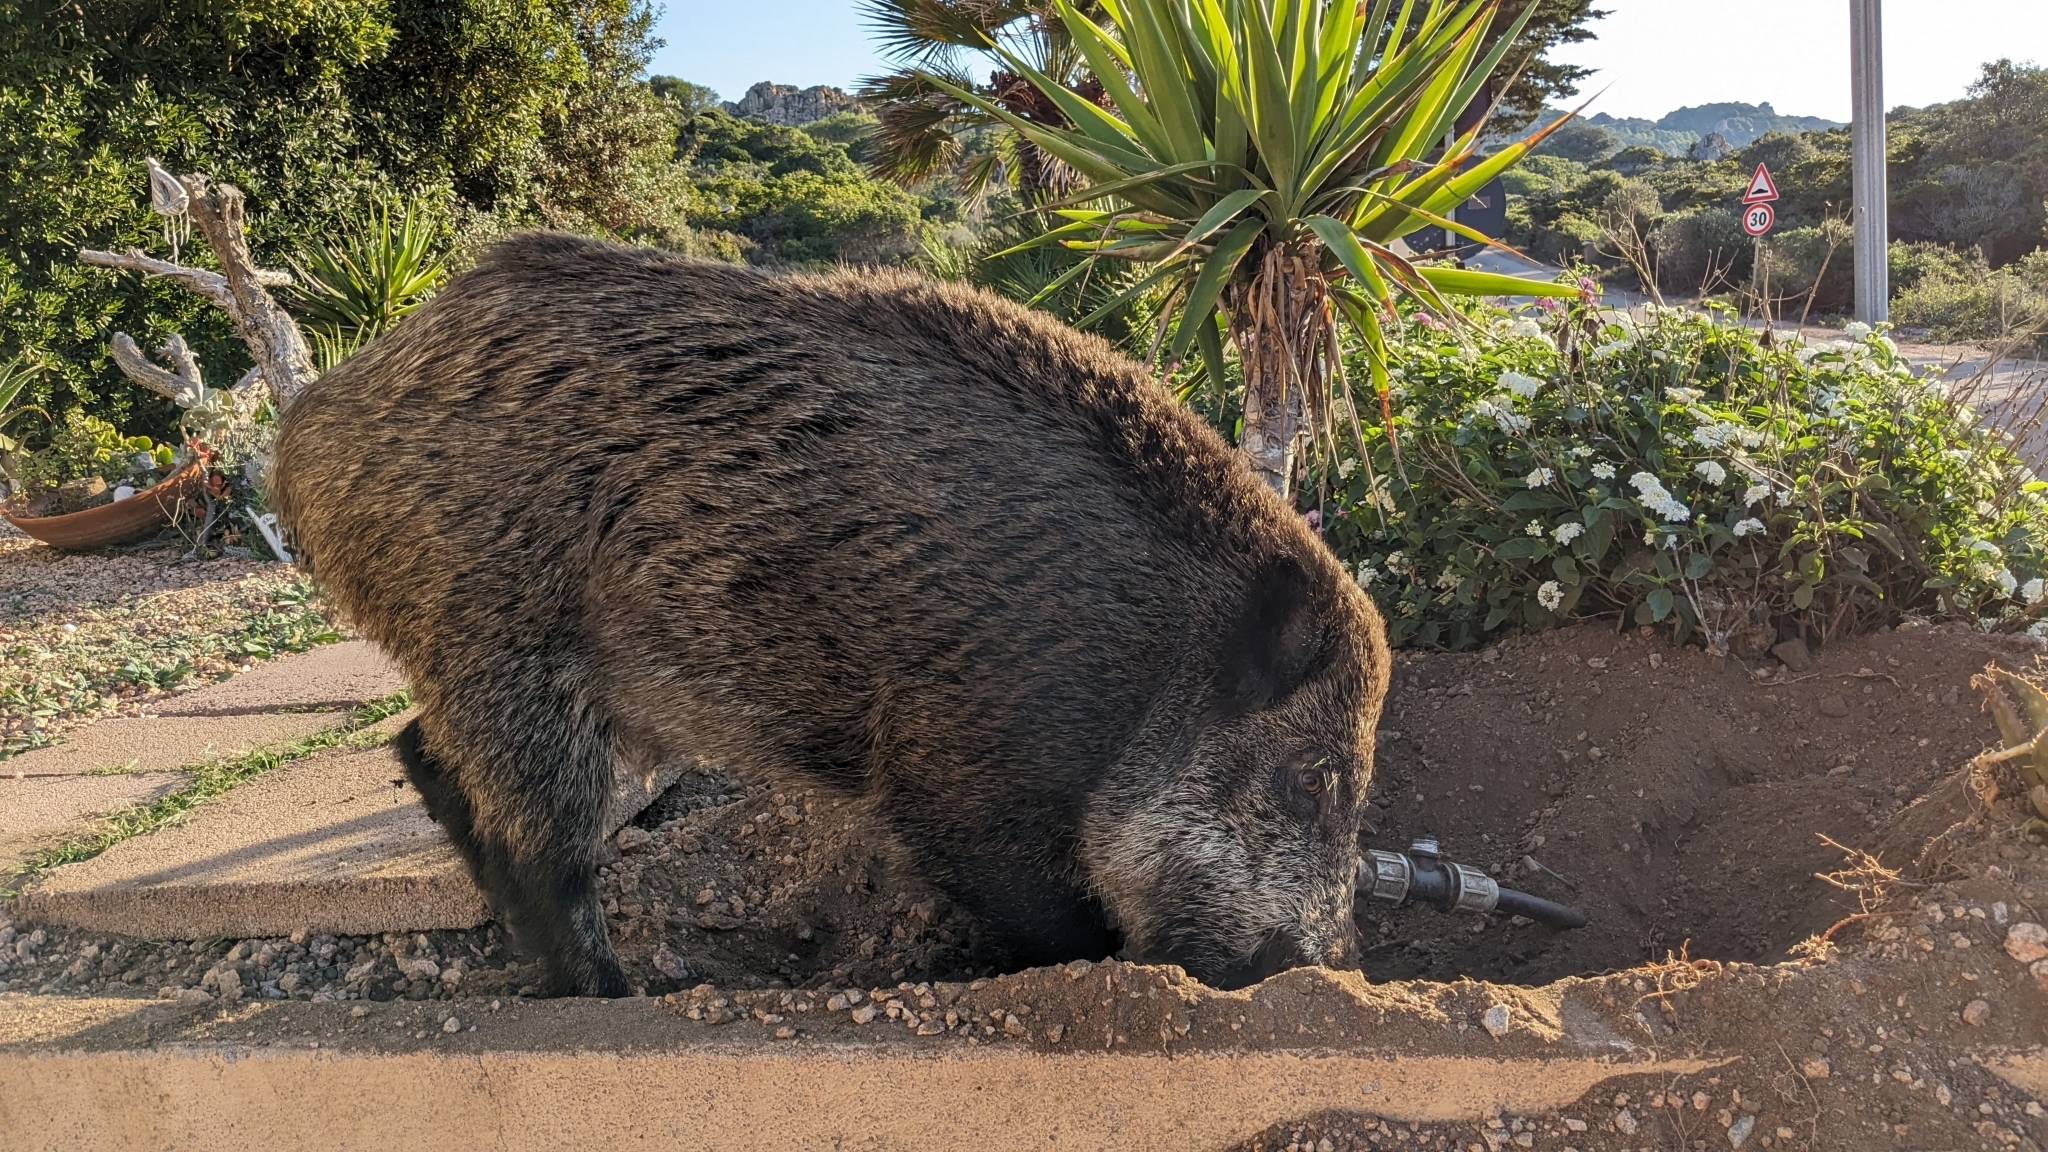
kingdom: Animalia
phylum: Chordata
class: Mammalia
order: Artiodactyla
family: Suidae
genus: Sus
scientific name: Sus scrofa
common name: Wild boar
